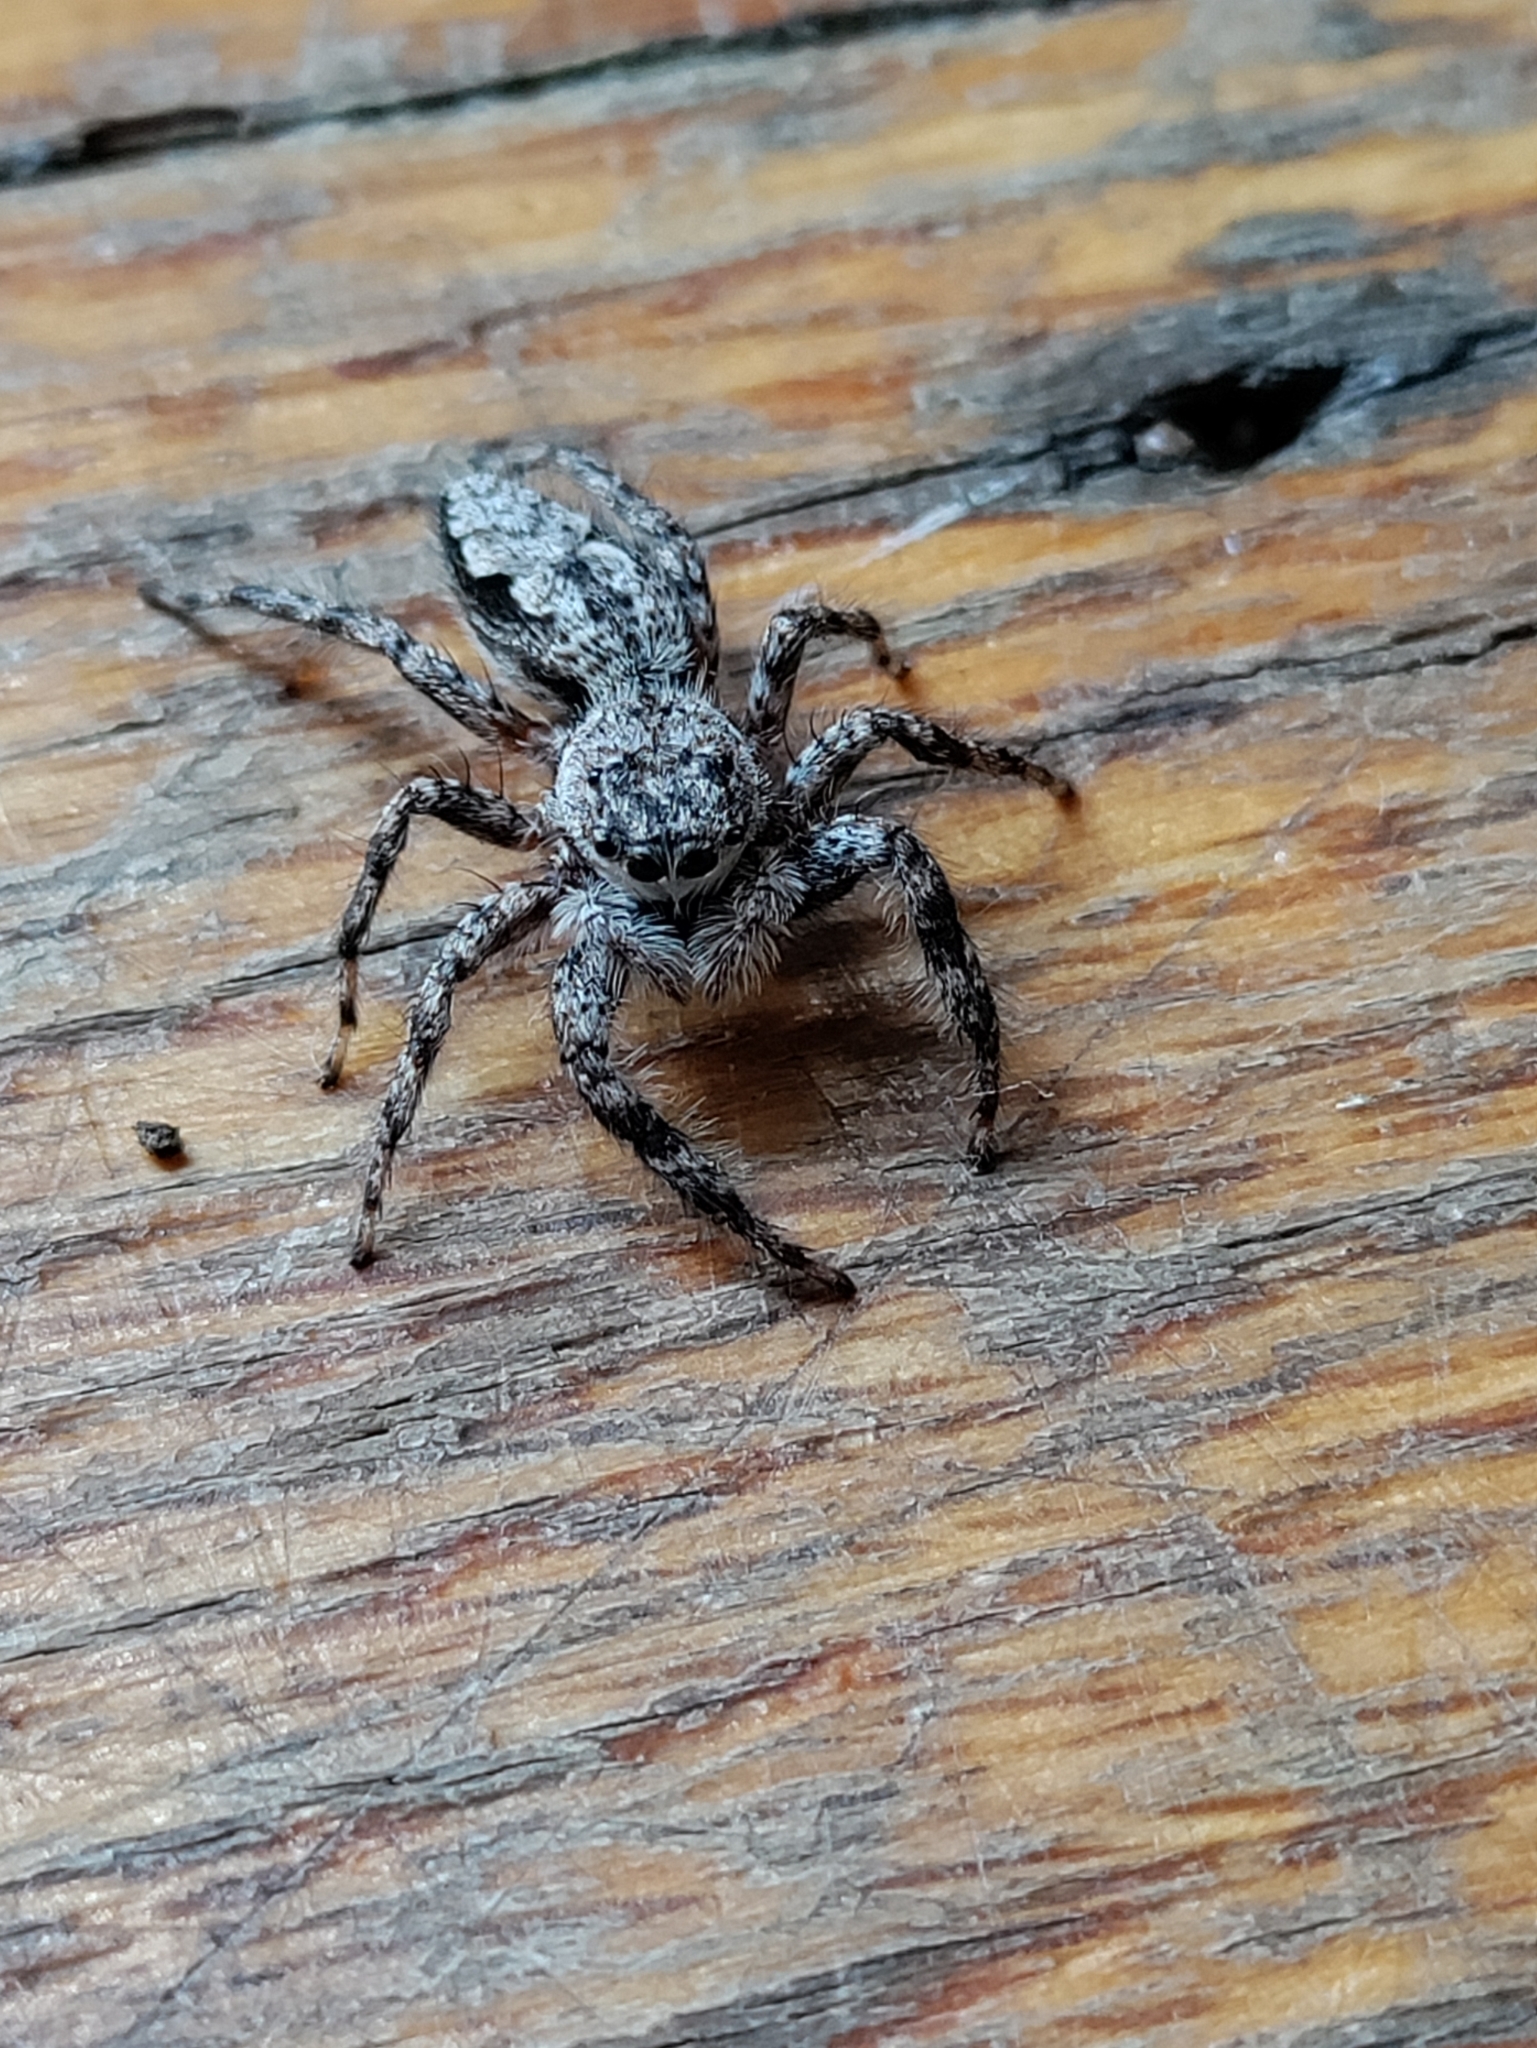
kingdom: Animalia
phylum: Arthropoda
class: Arachnida
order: Araneae
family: Salticidae
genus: Platycryptus
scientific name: Platycryptus undatus
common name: Tan jumping spider
